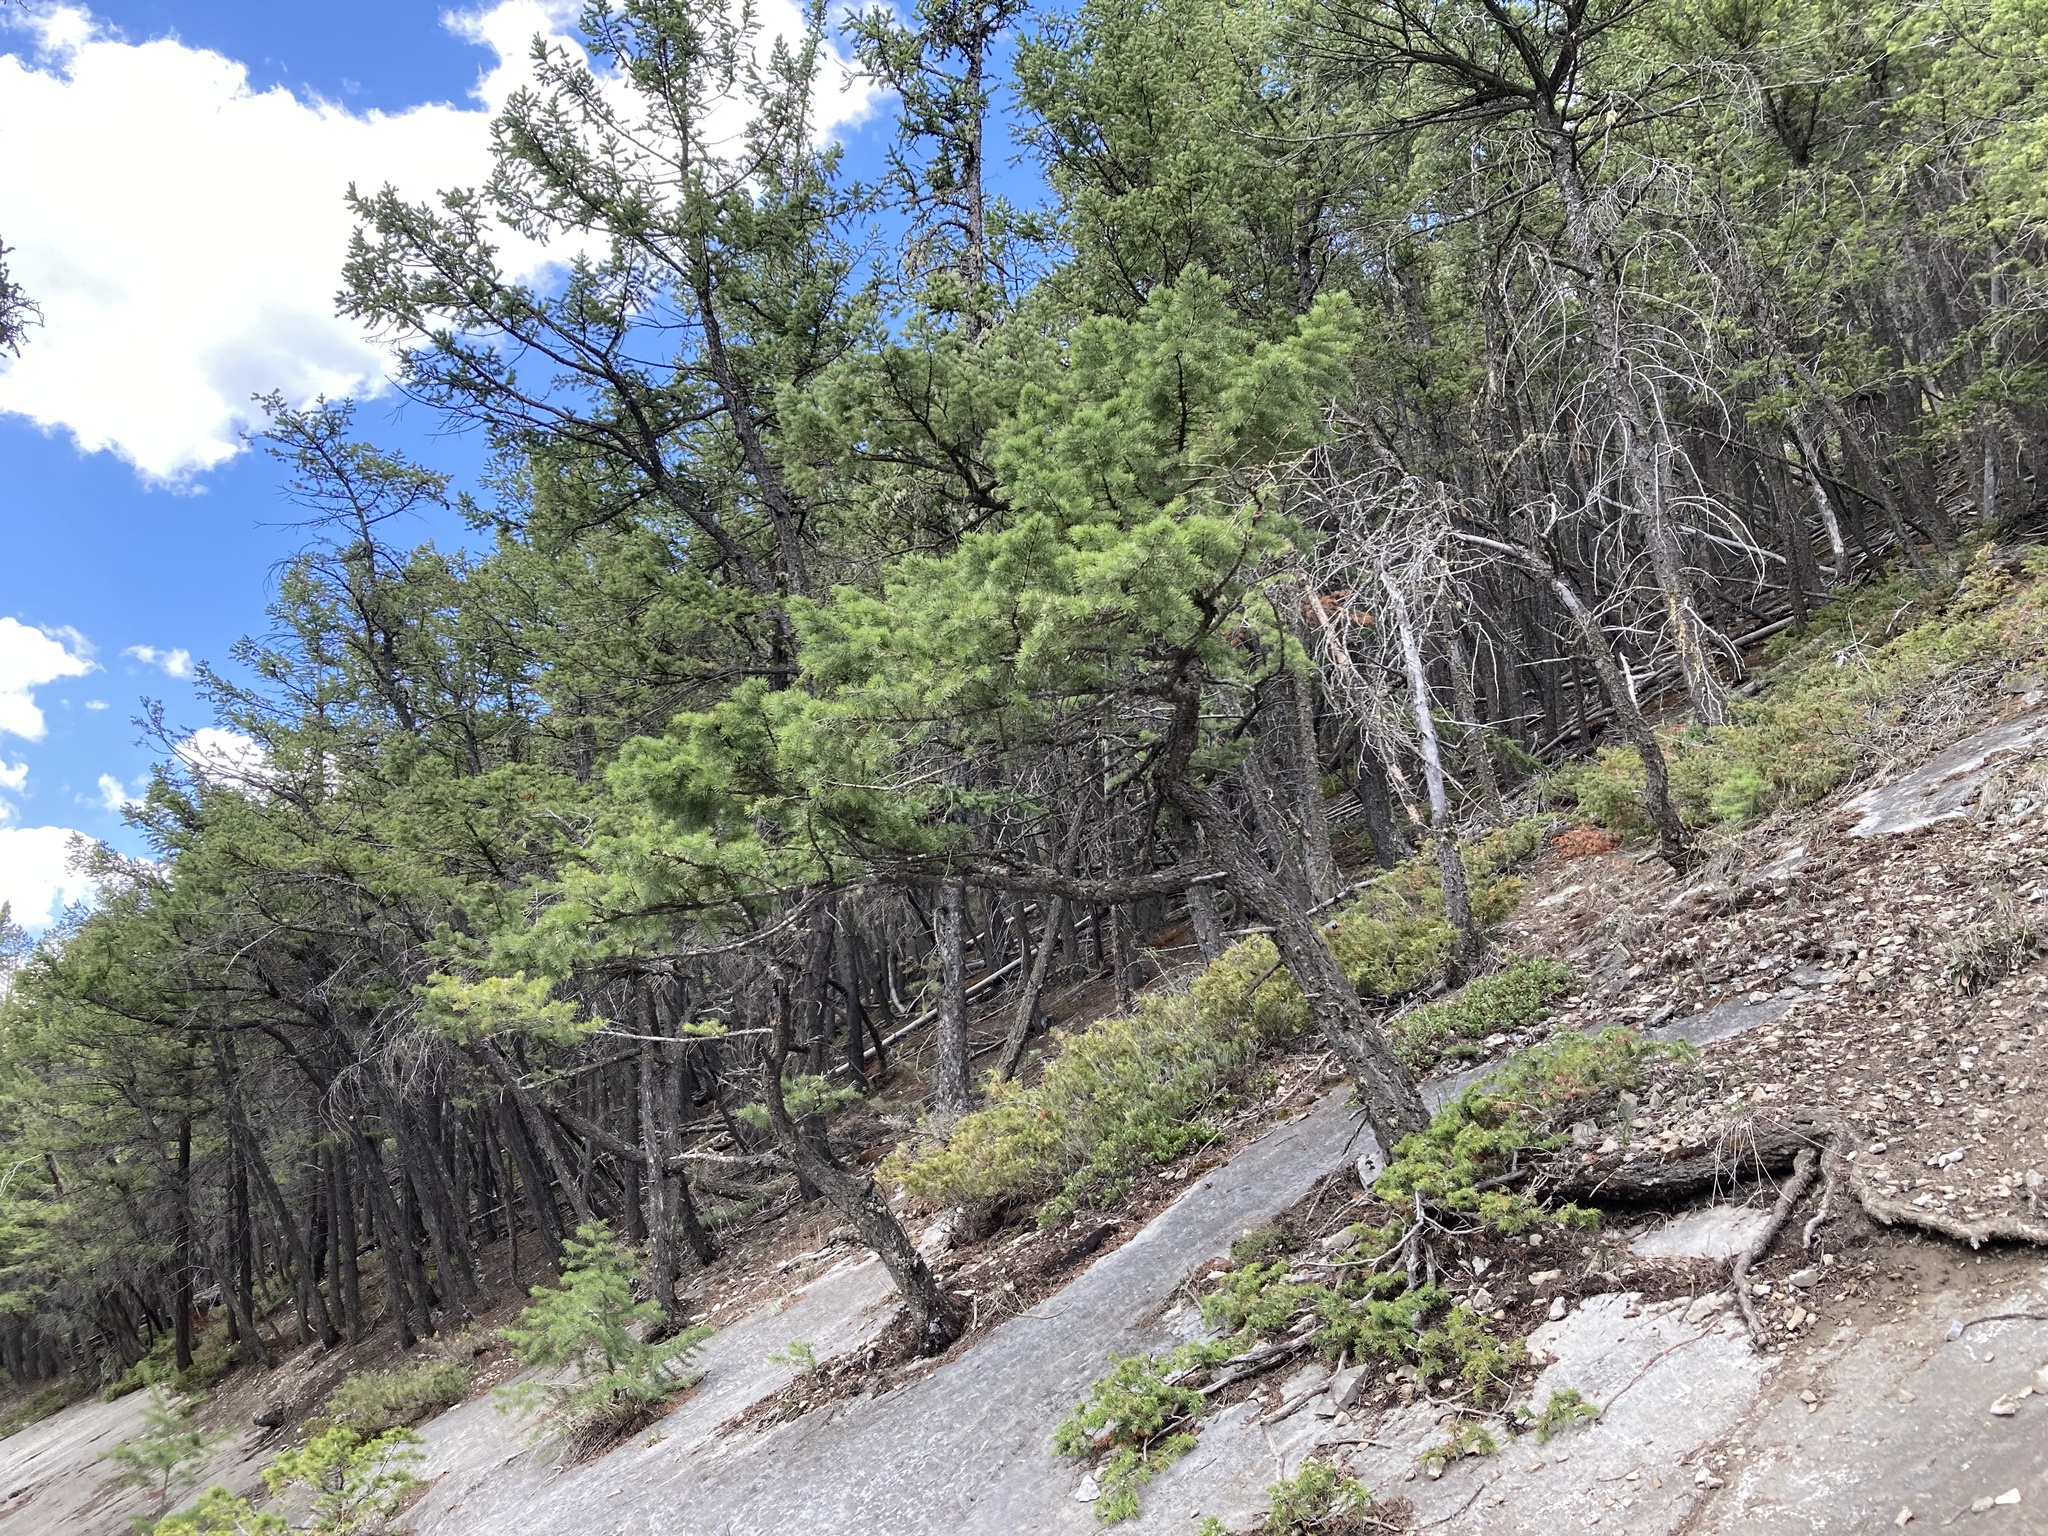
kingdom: Plantae
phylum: Tracheophyta
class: Pinopsida
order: Pinales
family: Pinaceae
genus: Pseudotsuga
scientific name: Pseudotsuga menziesii
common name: Douglas fir
